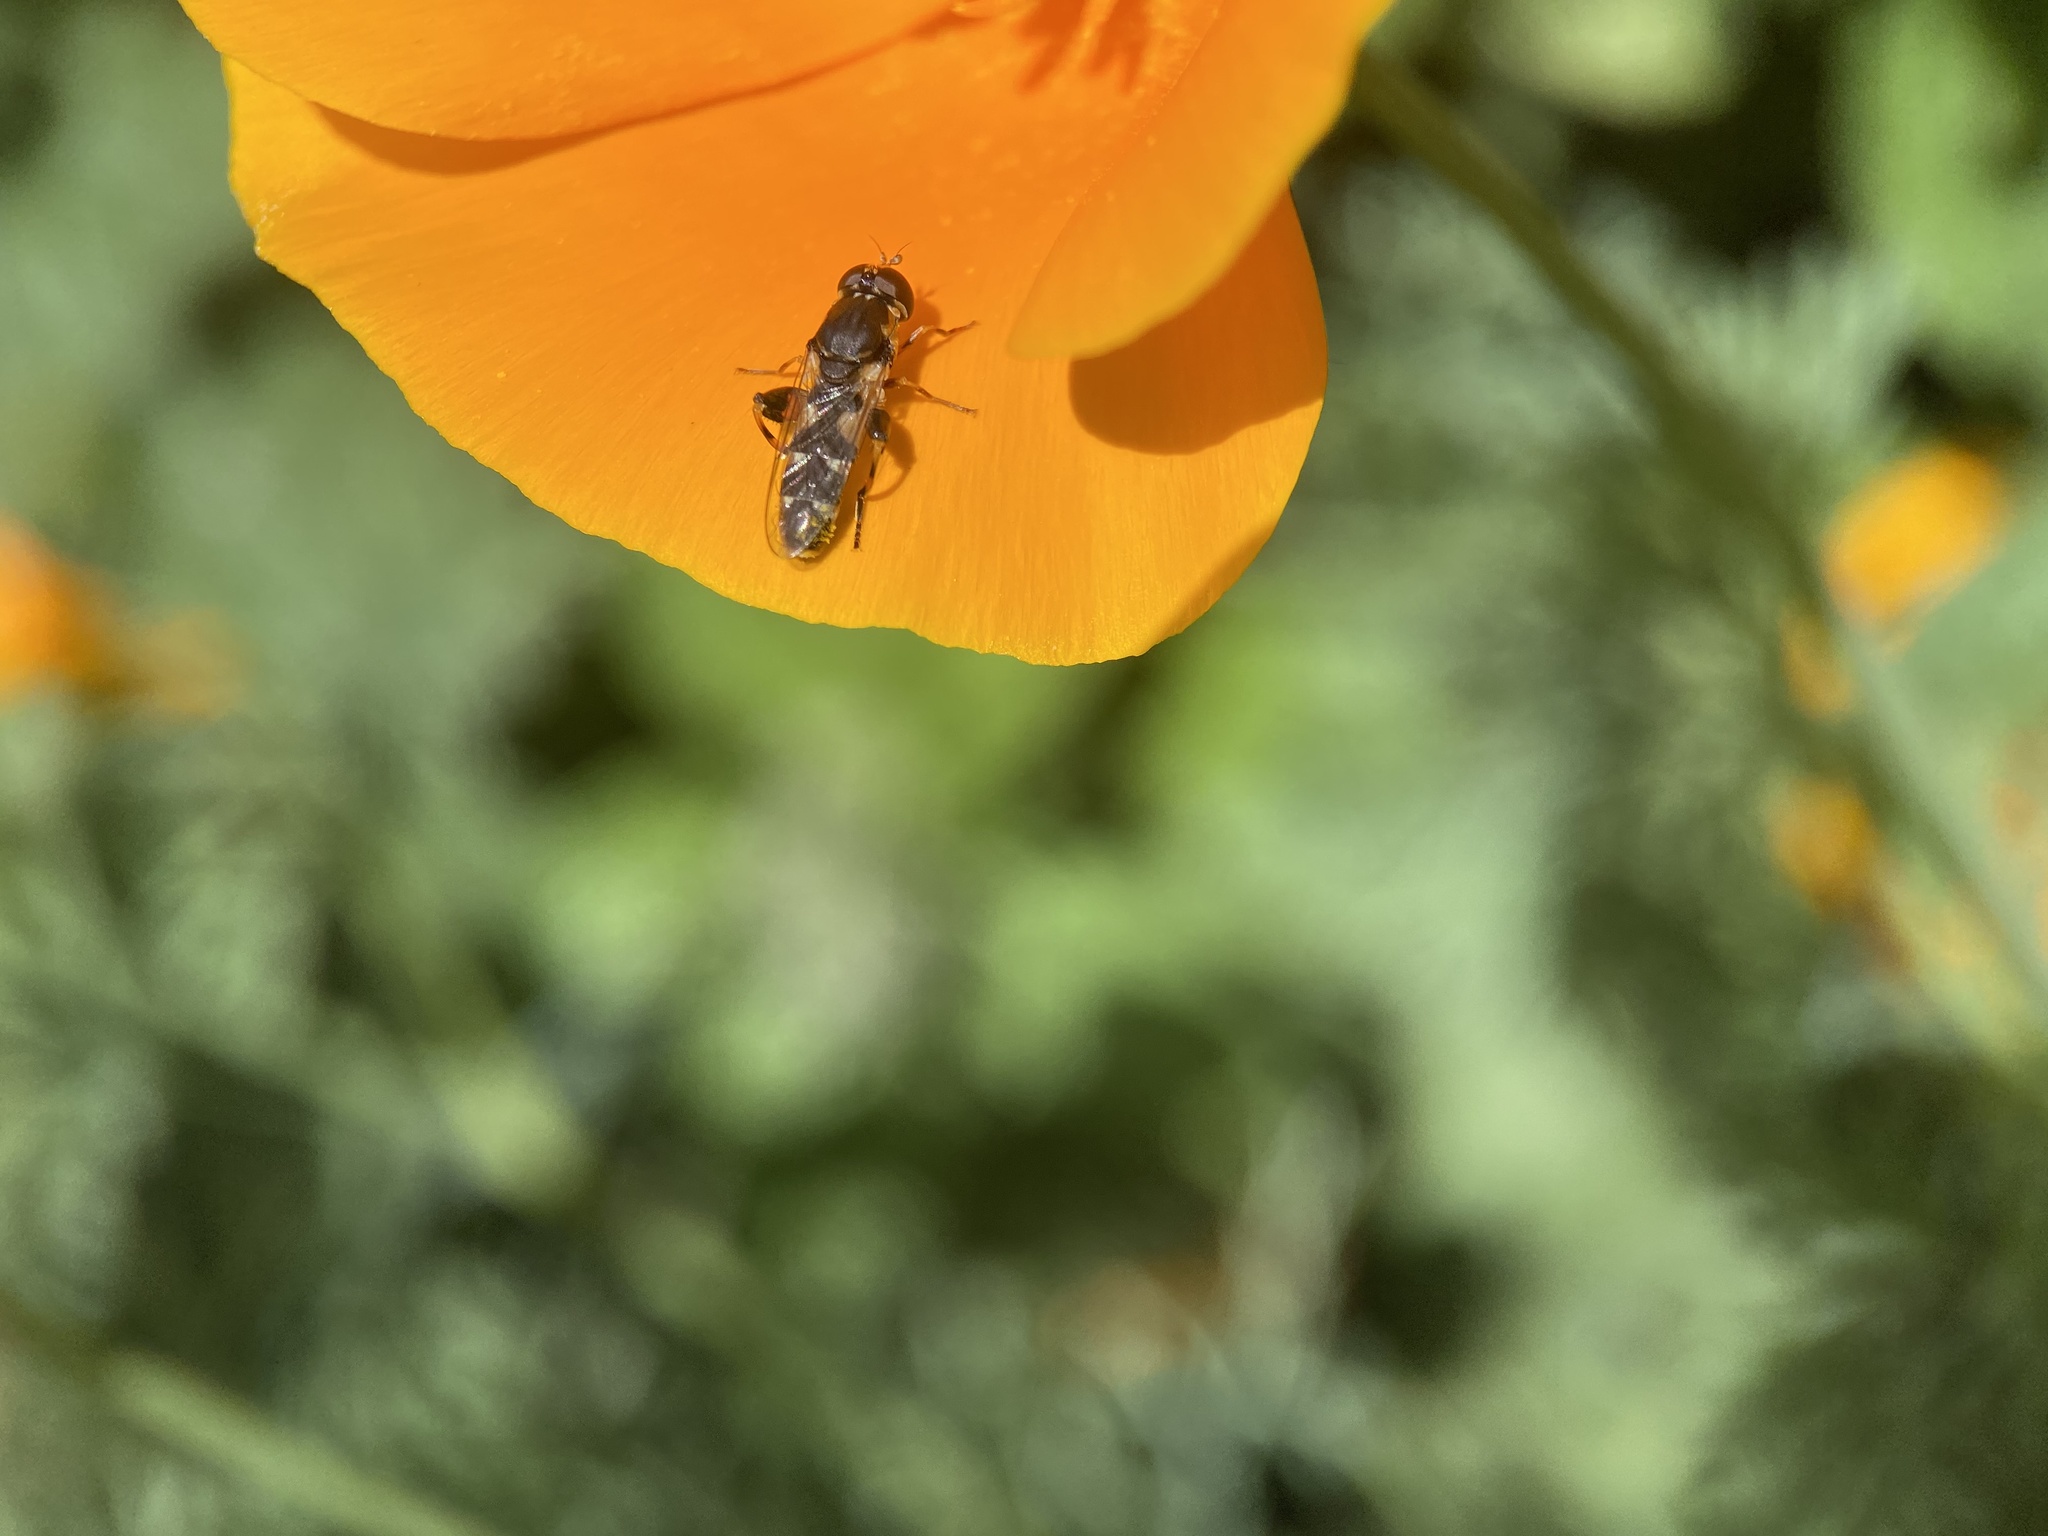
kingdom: Animalia
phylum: Arthropoda
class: Insecta
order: Diptera
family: Syrphidae
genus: Syritta
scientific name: Syritta pipiens
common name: Hover fly
